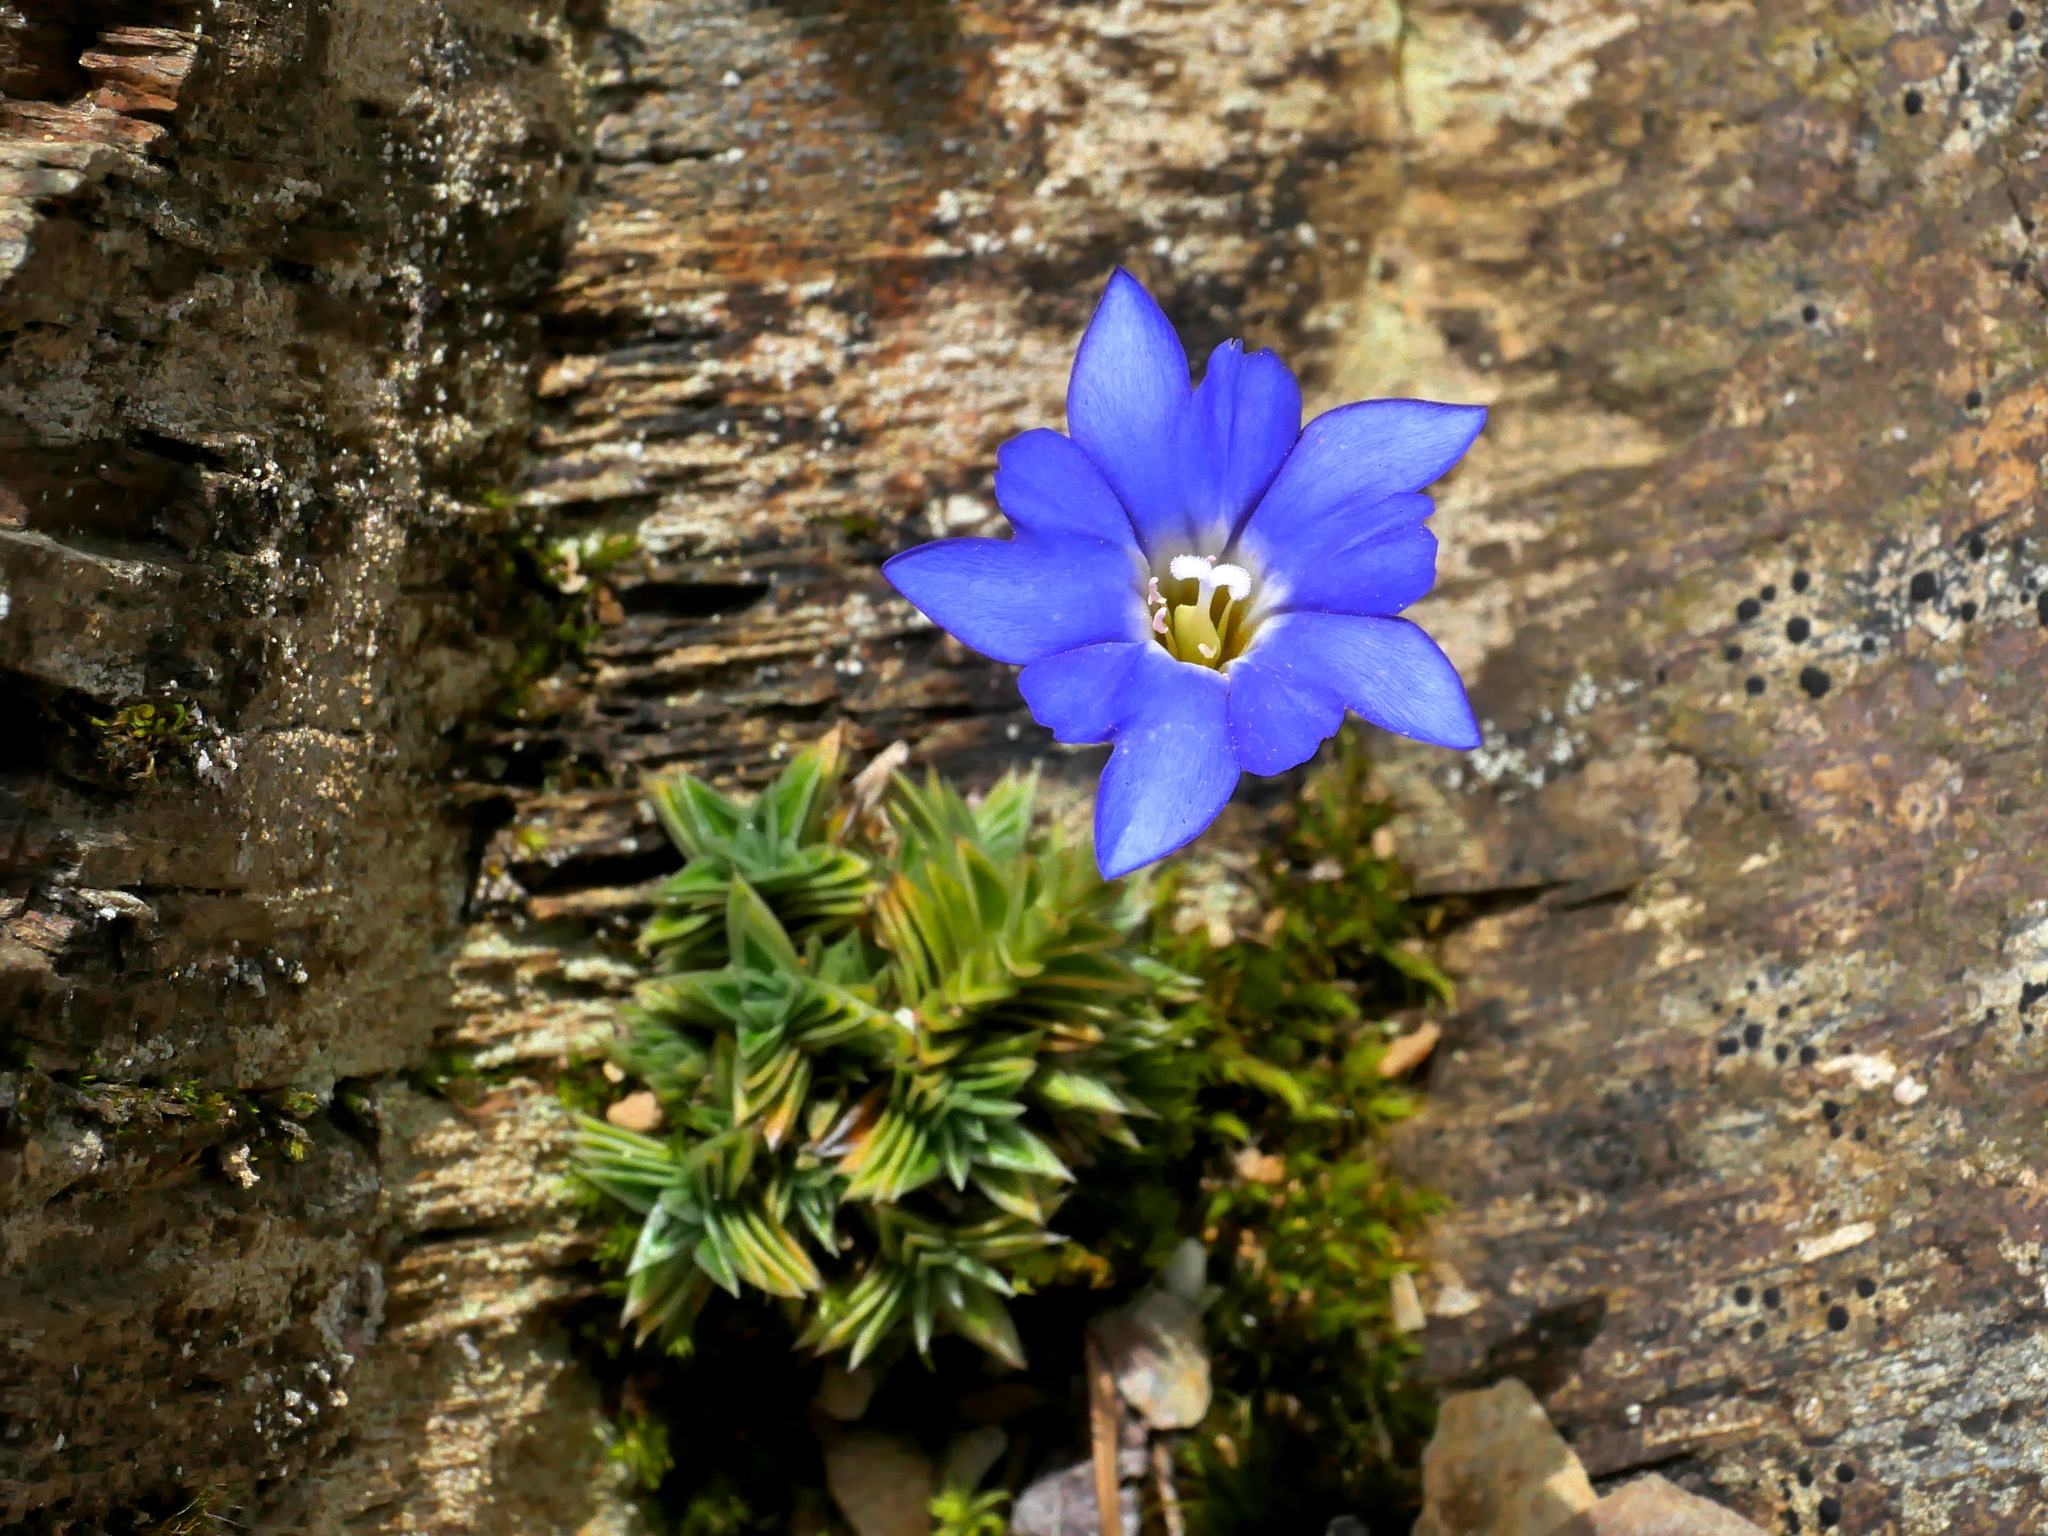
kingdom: Plantae
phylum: Tracheophyta
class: Magnoliopsida
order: Gentianales
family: Gentianaceae
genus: Gentiana
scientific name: Gentiana arisanensis
